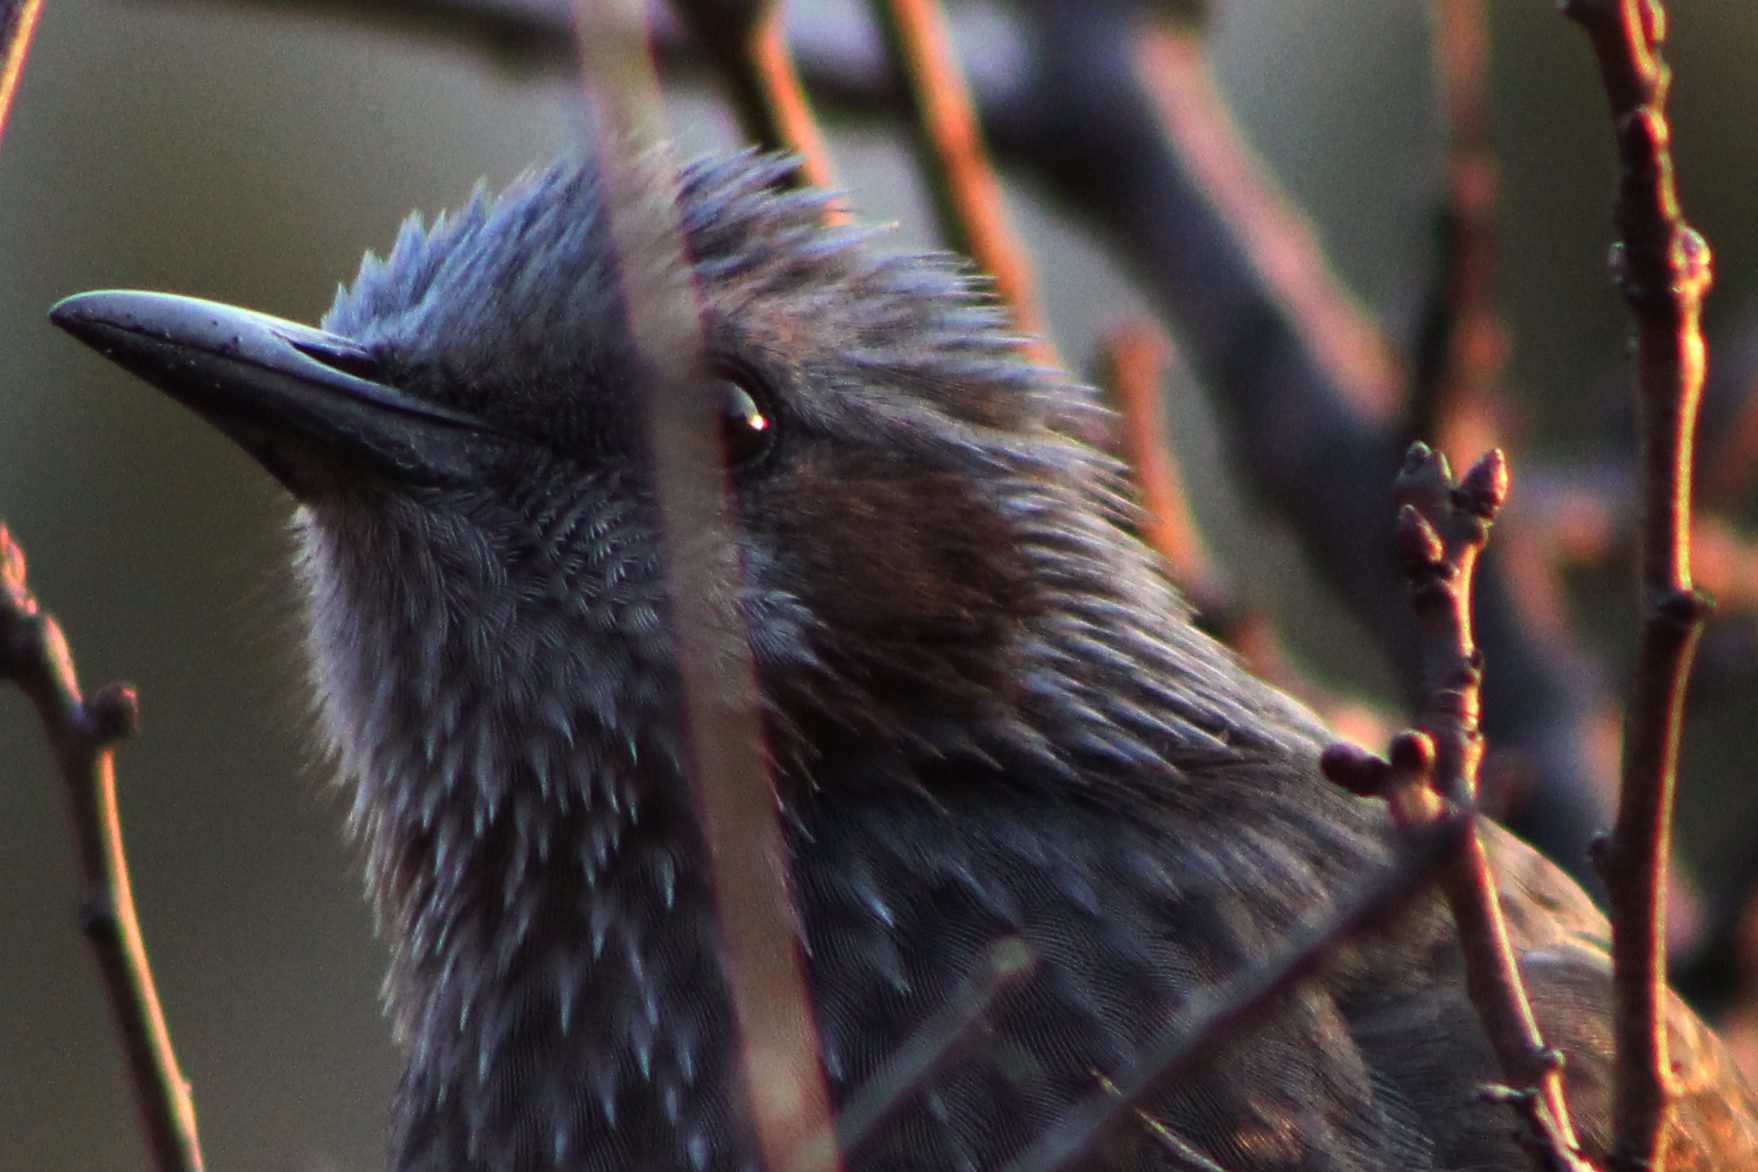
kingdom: Animalia
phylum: Chordata
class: Aves
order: Passeriformes
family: Pycnonotidae
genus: Hypsipetes
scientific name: Hypsipetes amaurotis
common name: Brown-eared bulbul
